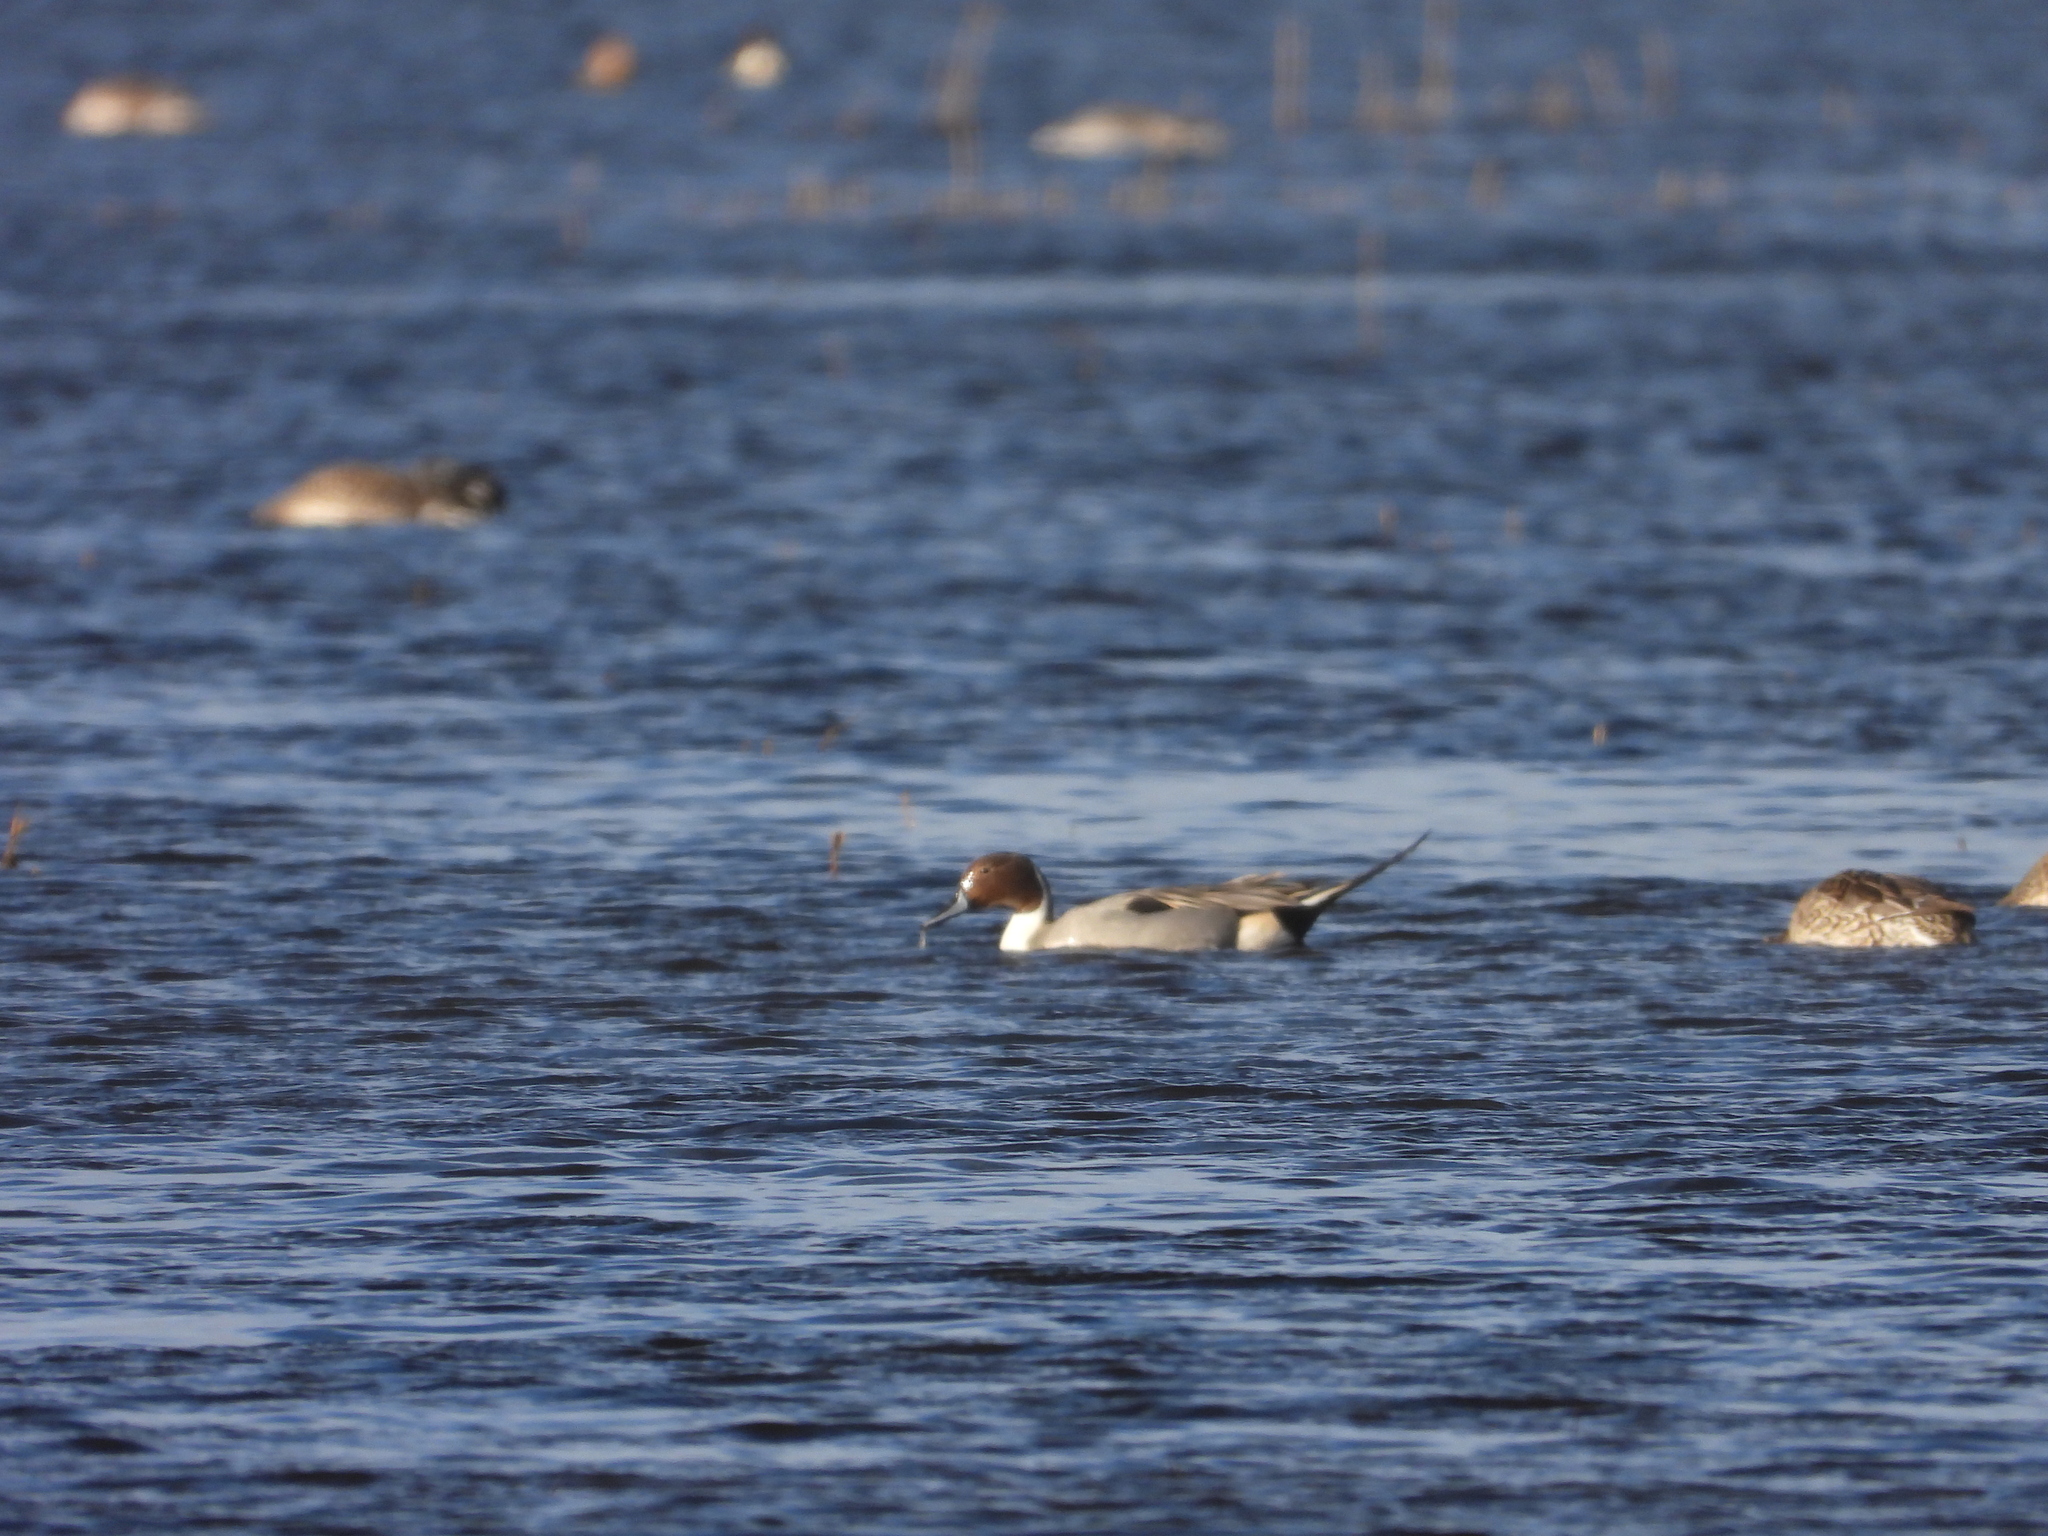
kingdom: Animalia
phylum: Chordata
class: Aves
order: Anseriformes
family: Anatidae
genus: Anas
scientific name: Anas acuta
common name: Northern pintail
